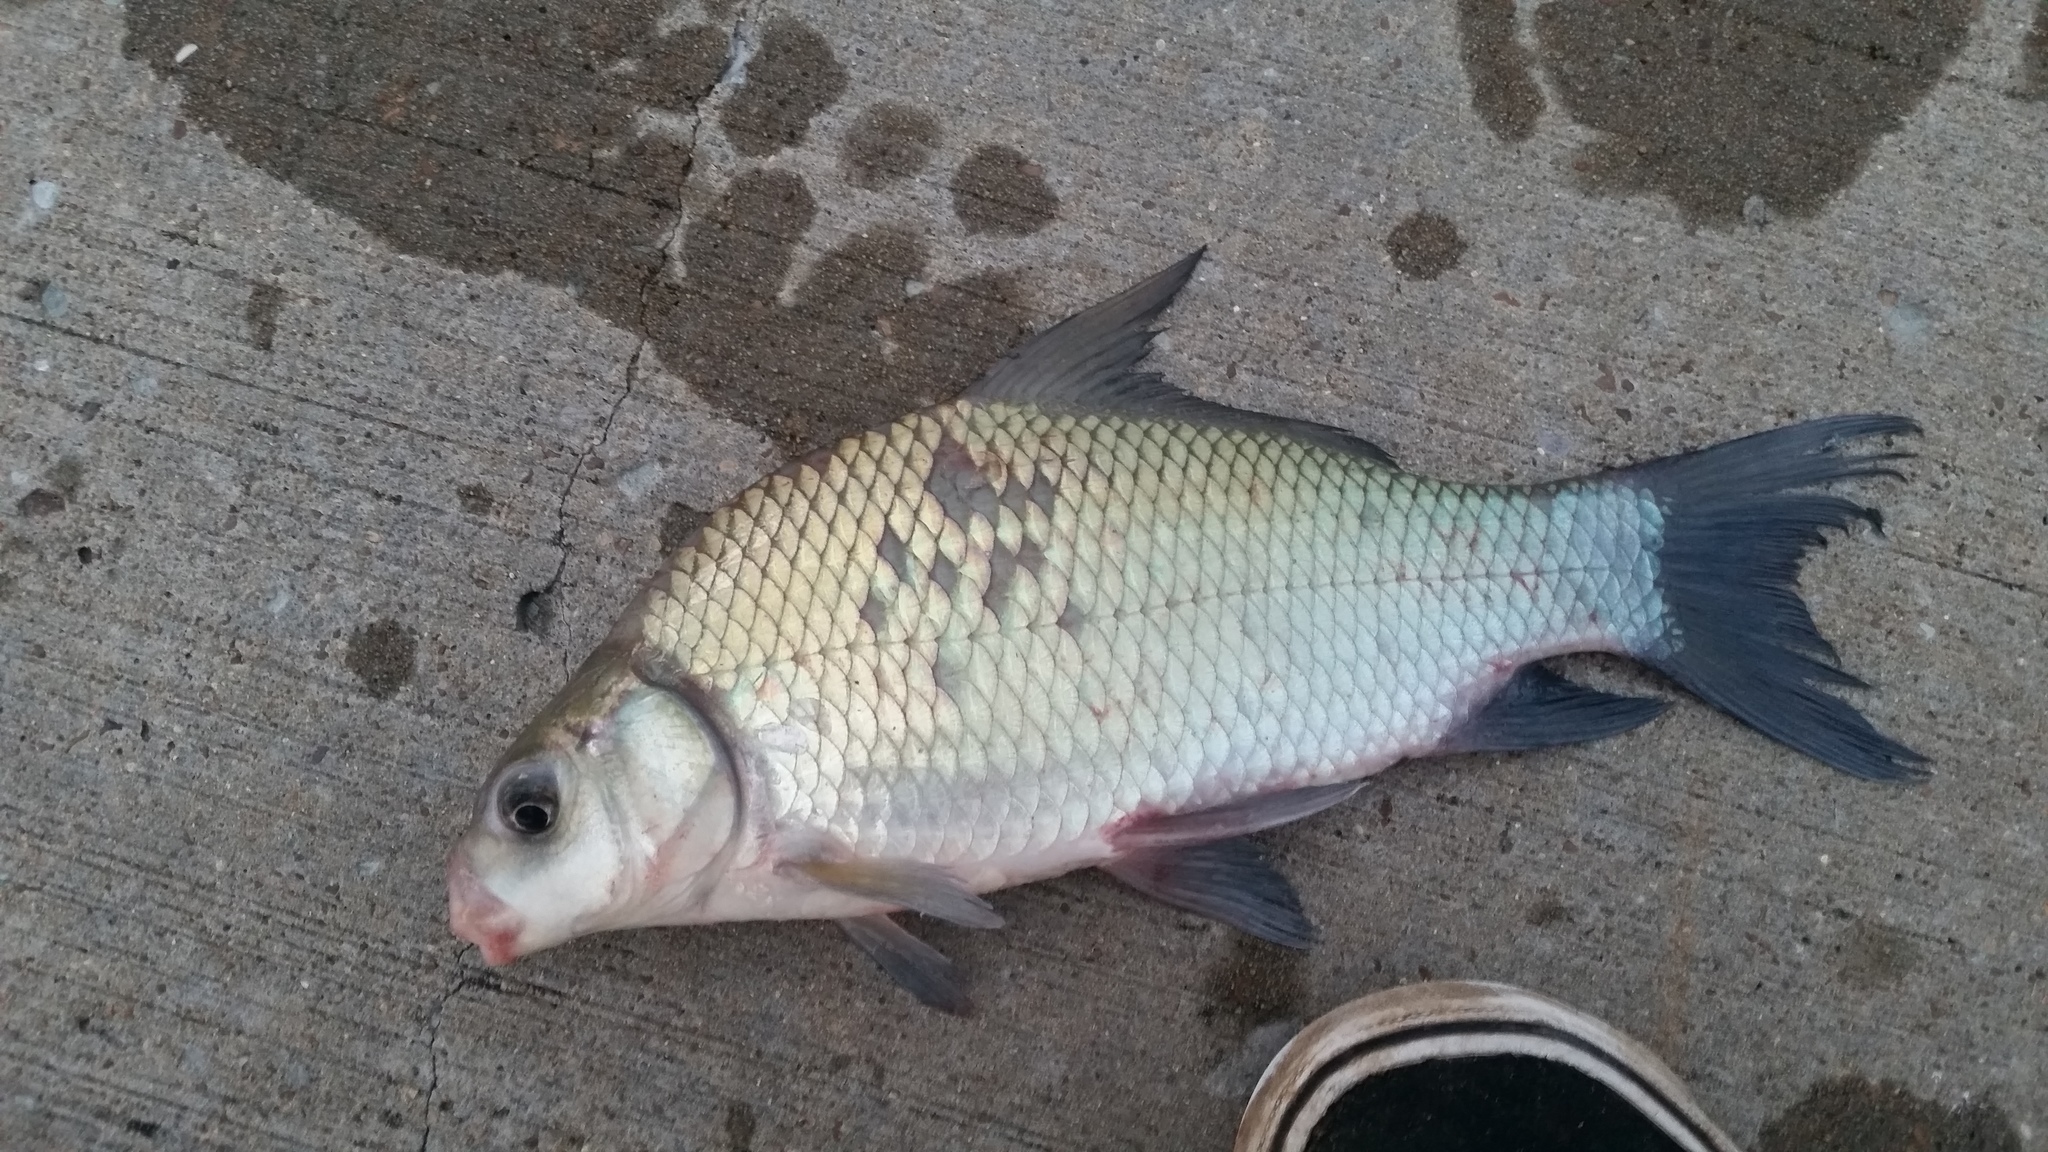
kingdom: Animalia
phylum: Chordata
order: Cypriniformes
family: Catostomidae
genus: Ictiobus
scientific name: Ictiobus bubalus
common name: Smallmouth buffalo
